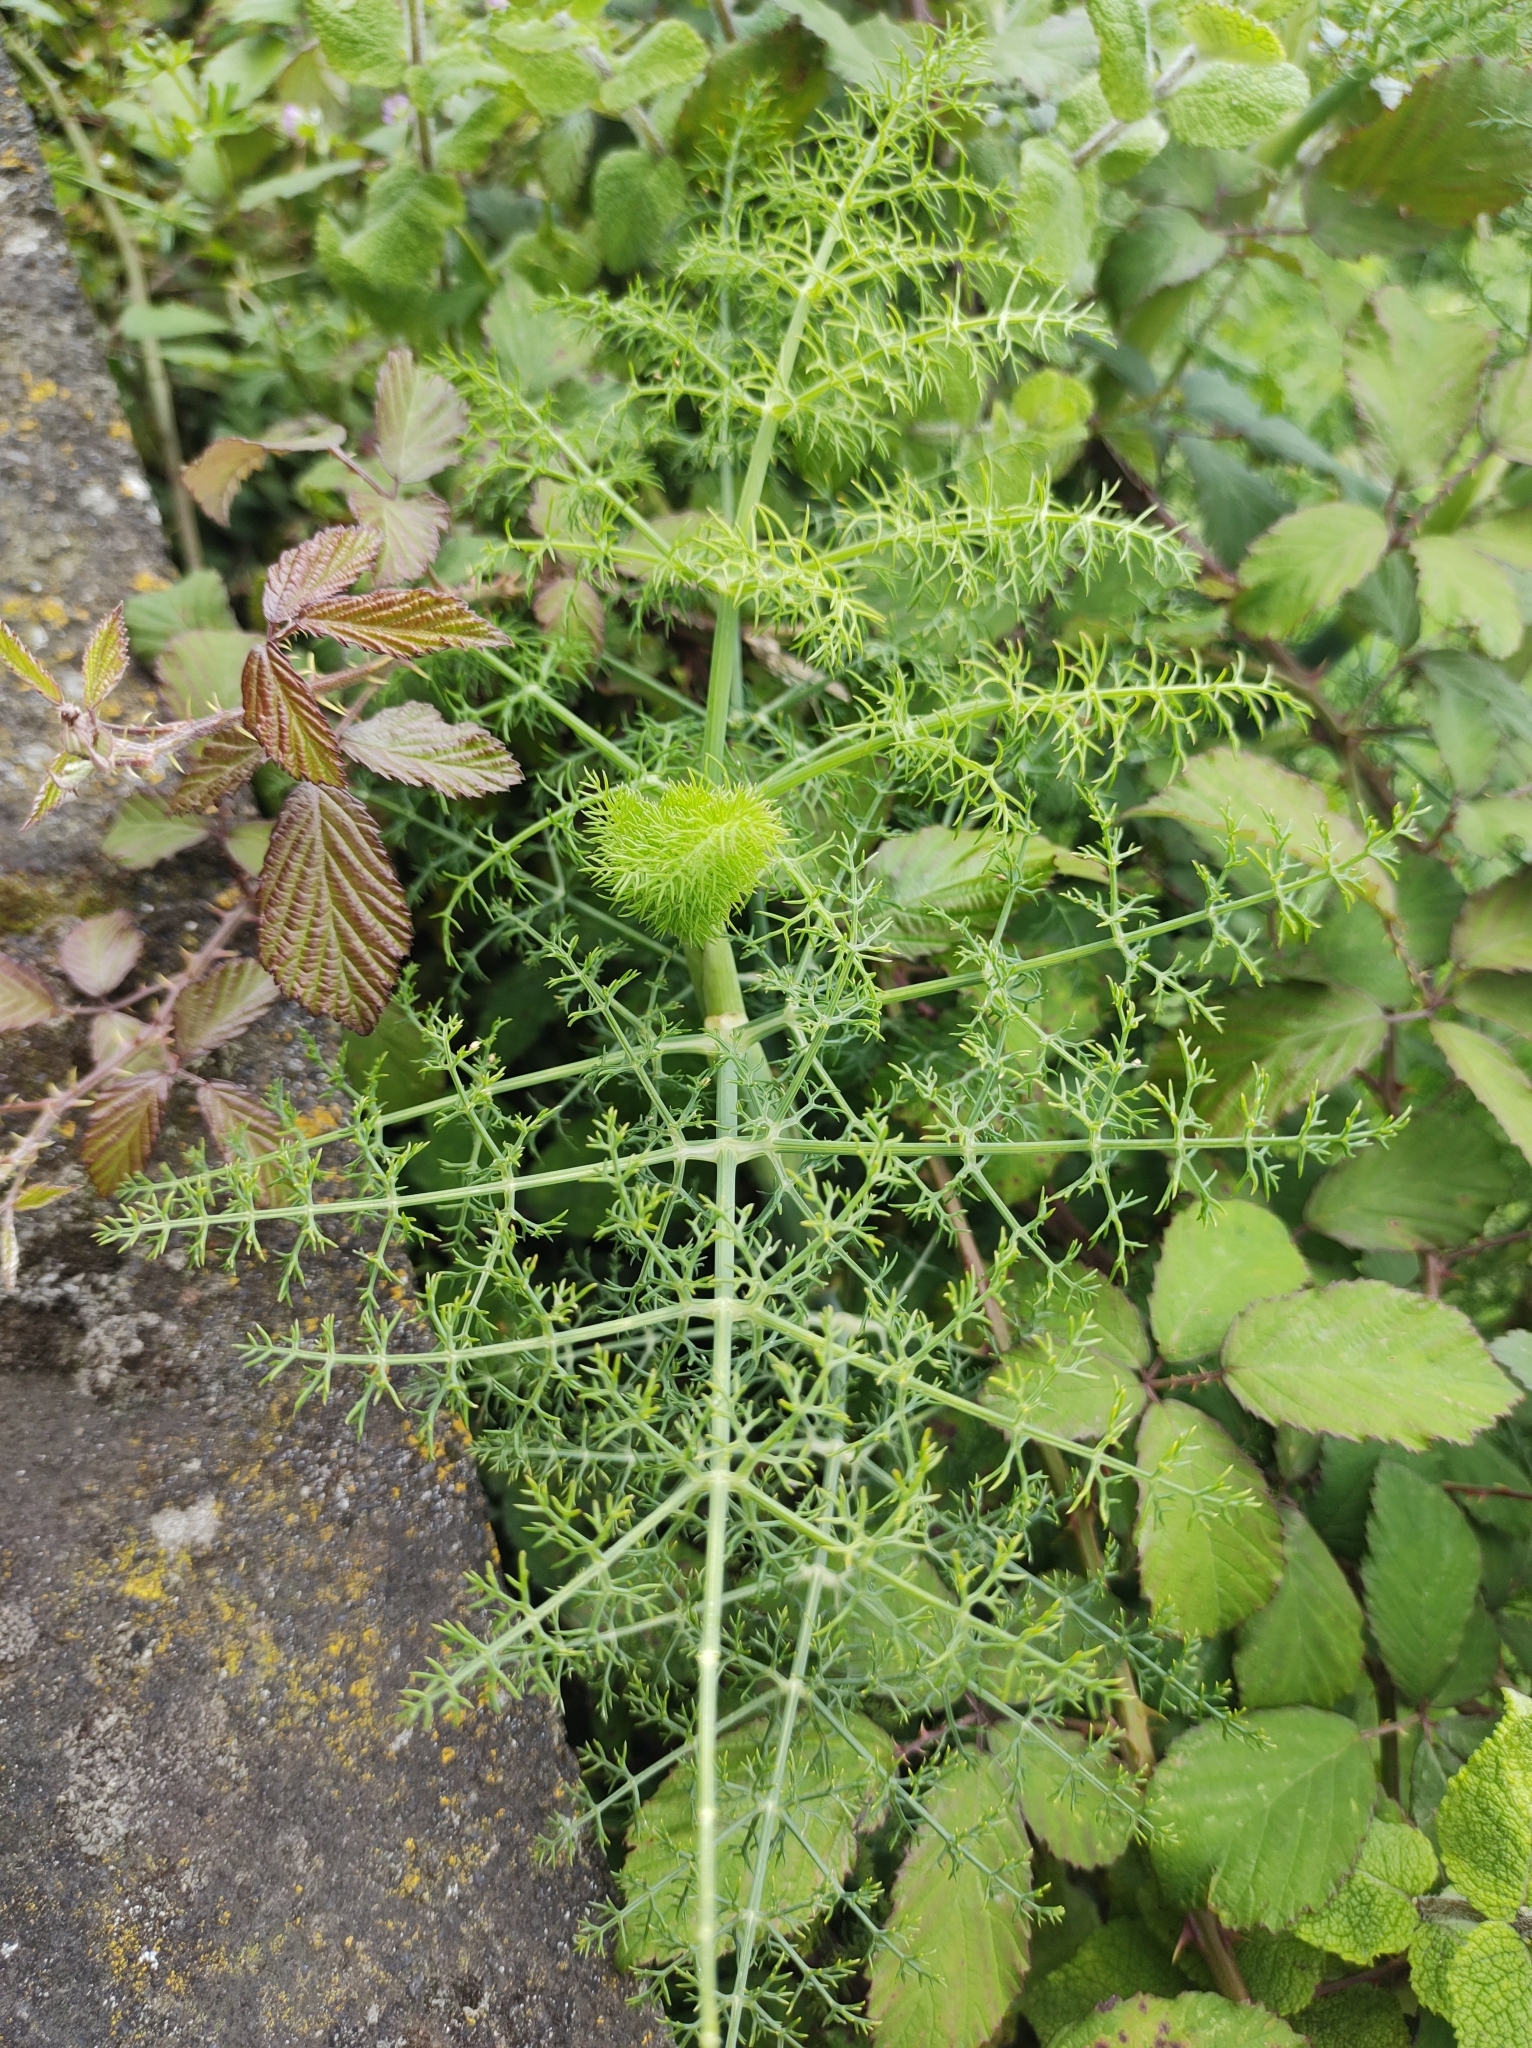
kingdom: Plantae
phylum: Tracheophyta
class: Magnoliopsida
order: Apiales
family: Apiaceae
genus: Foeniculum
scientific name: Foeniculum vulgare
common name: Fennel
